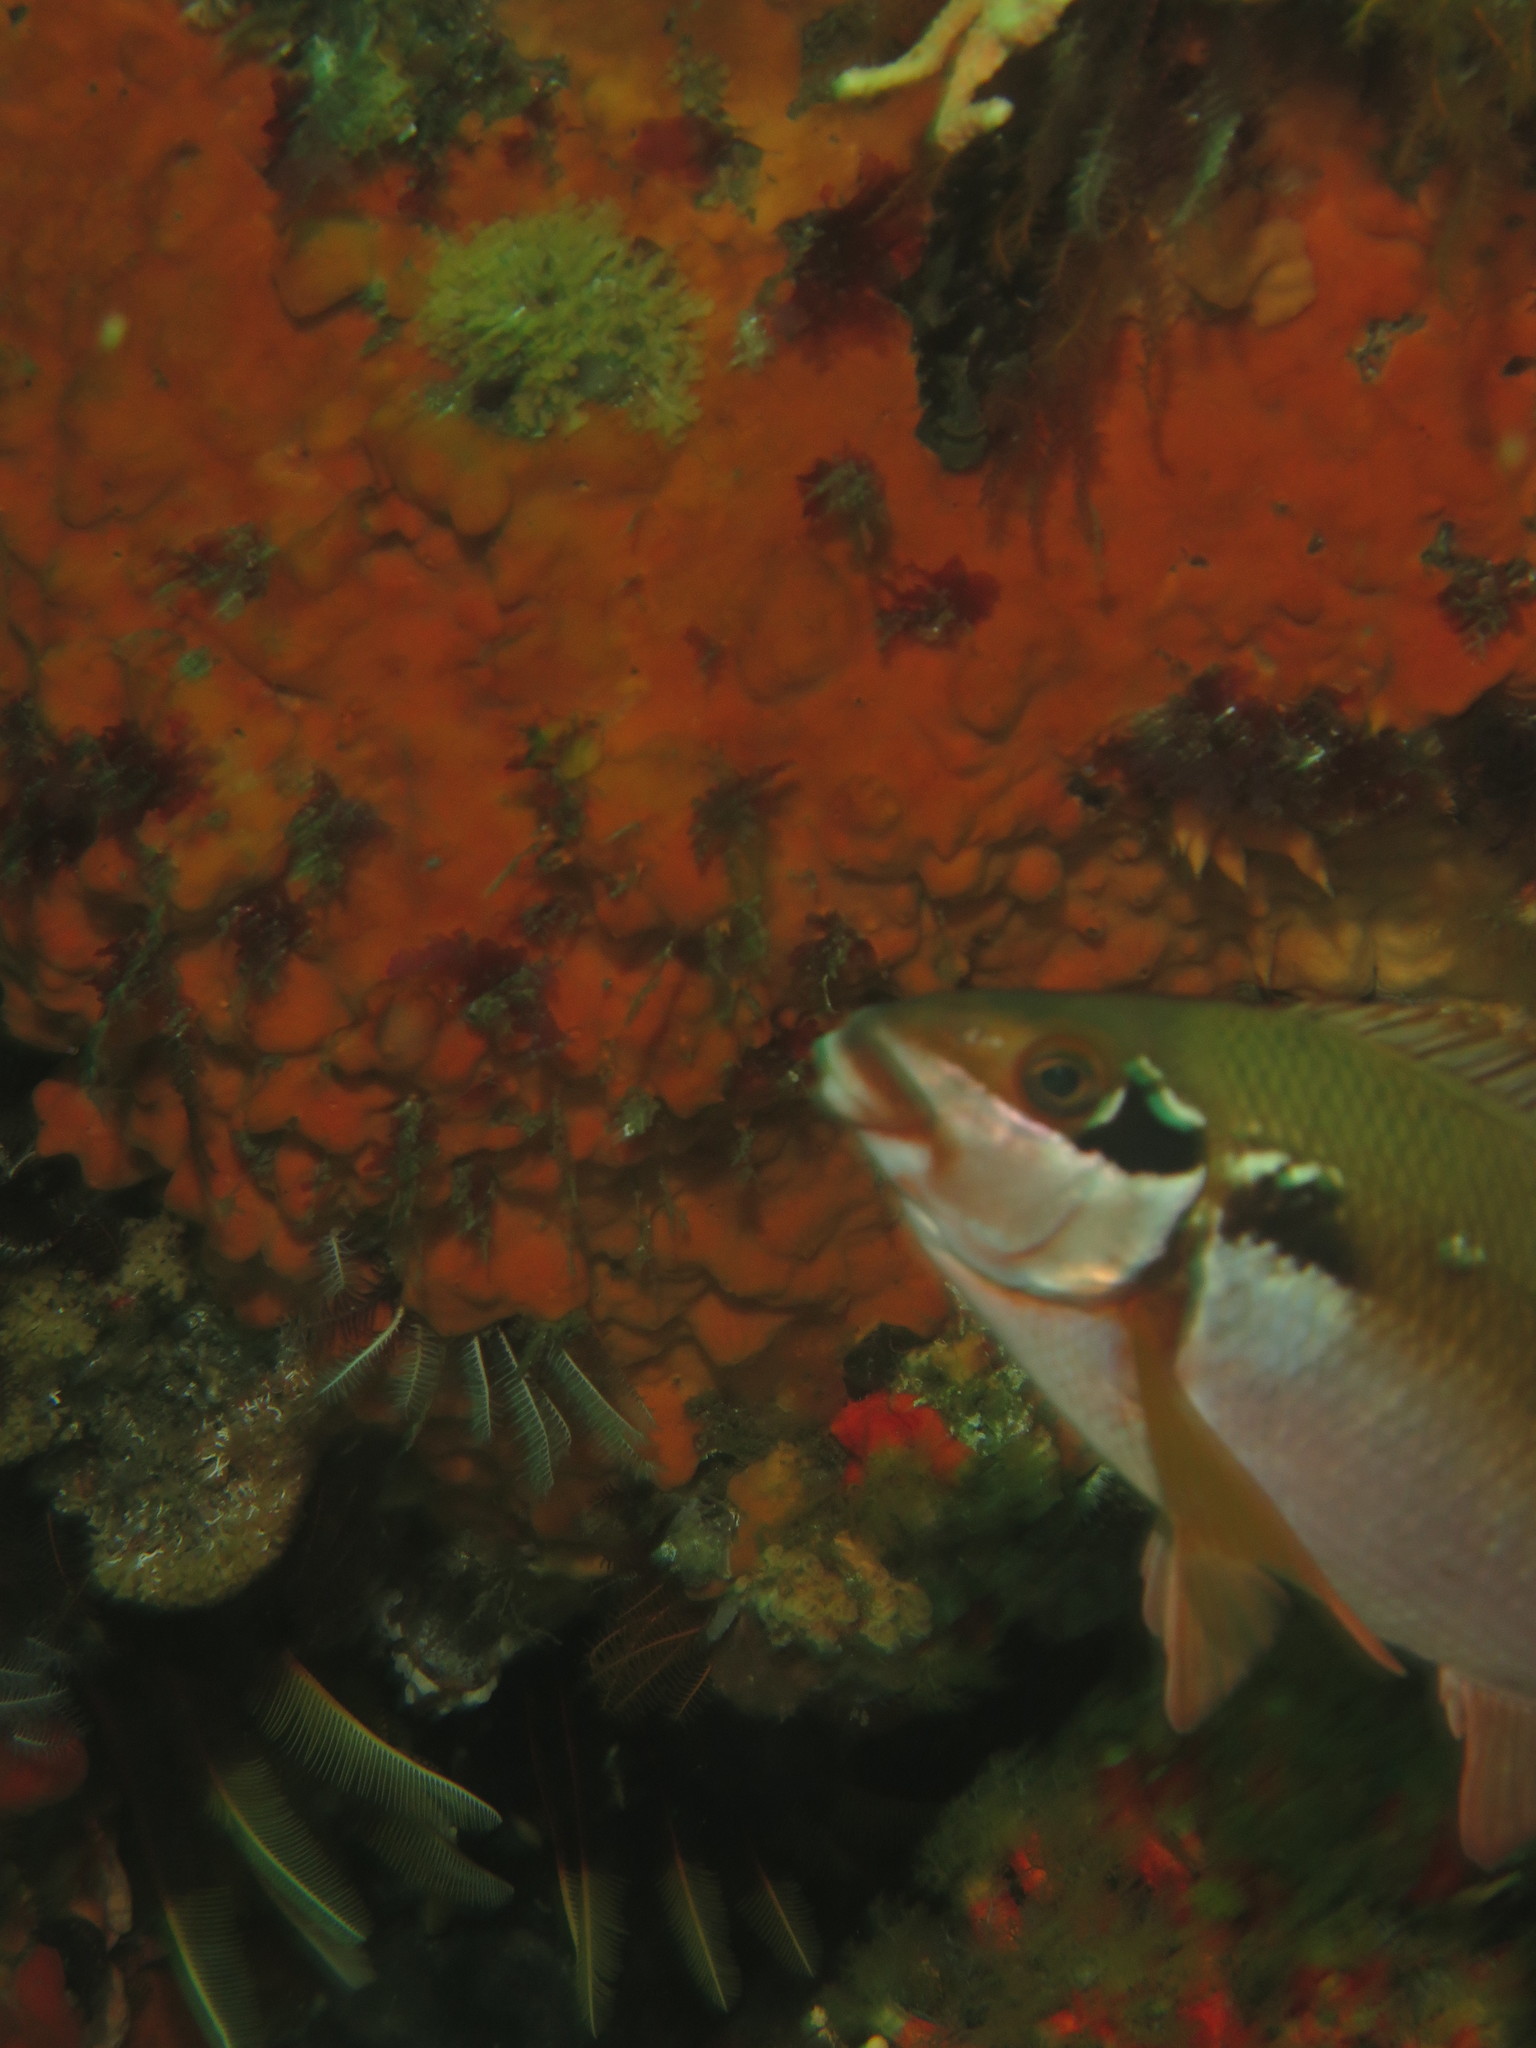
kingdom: Animalia
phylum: Chordata
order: Perciformes
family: Cheilodactylidae
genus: Chirodactylus
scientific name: Chirodactylus brachydactylus
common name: Butterfish
